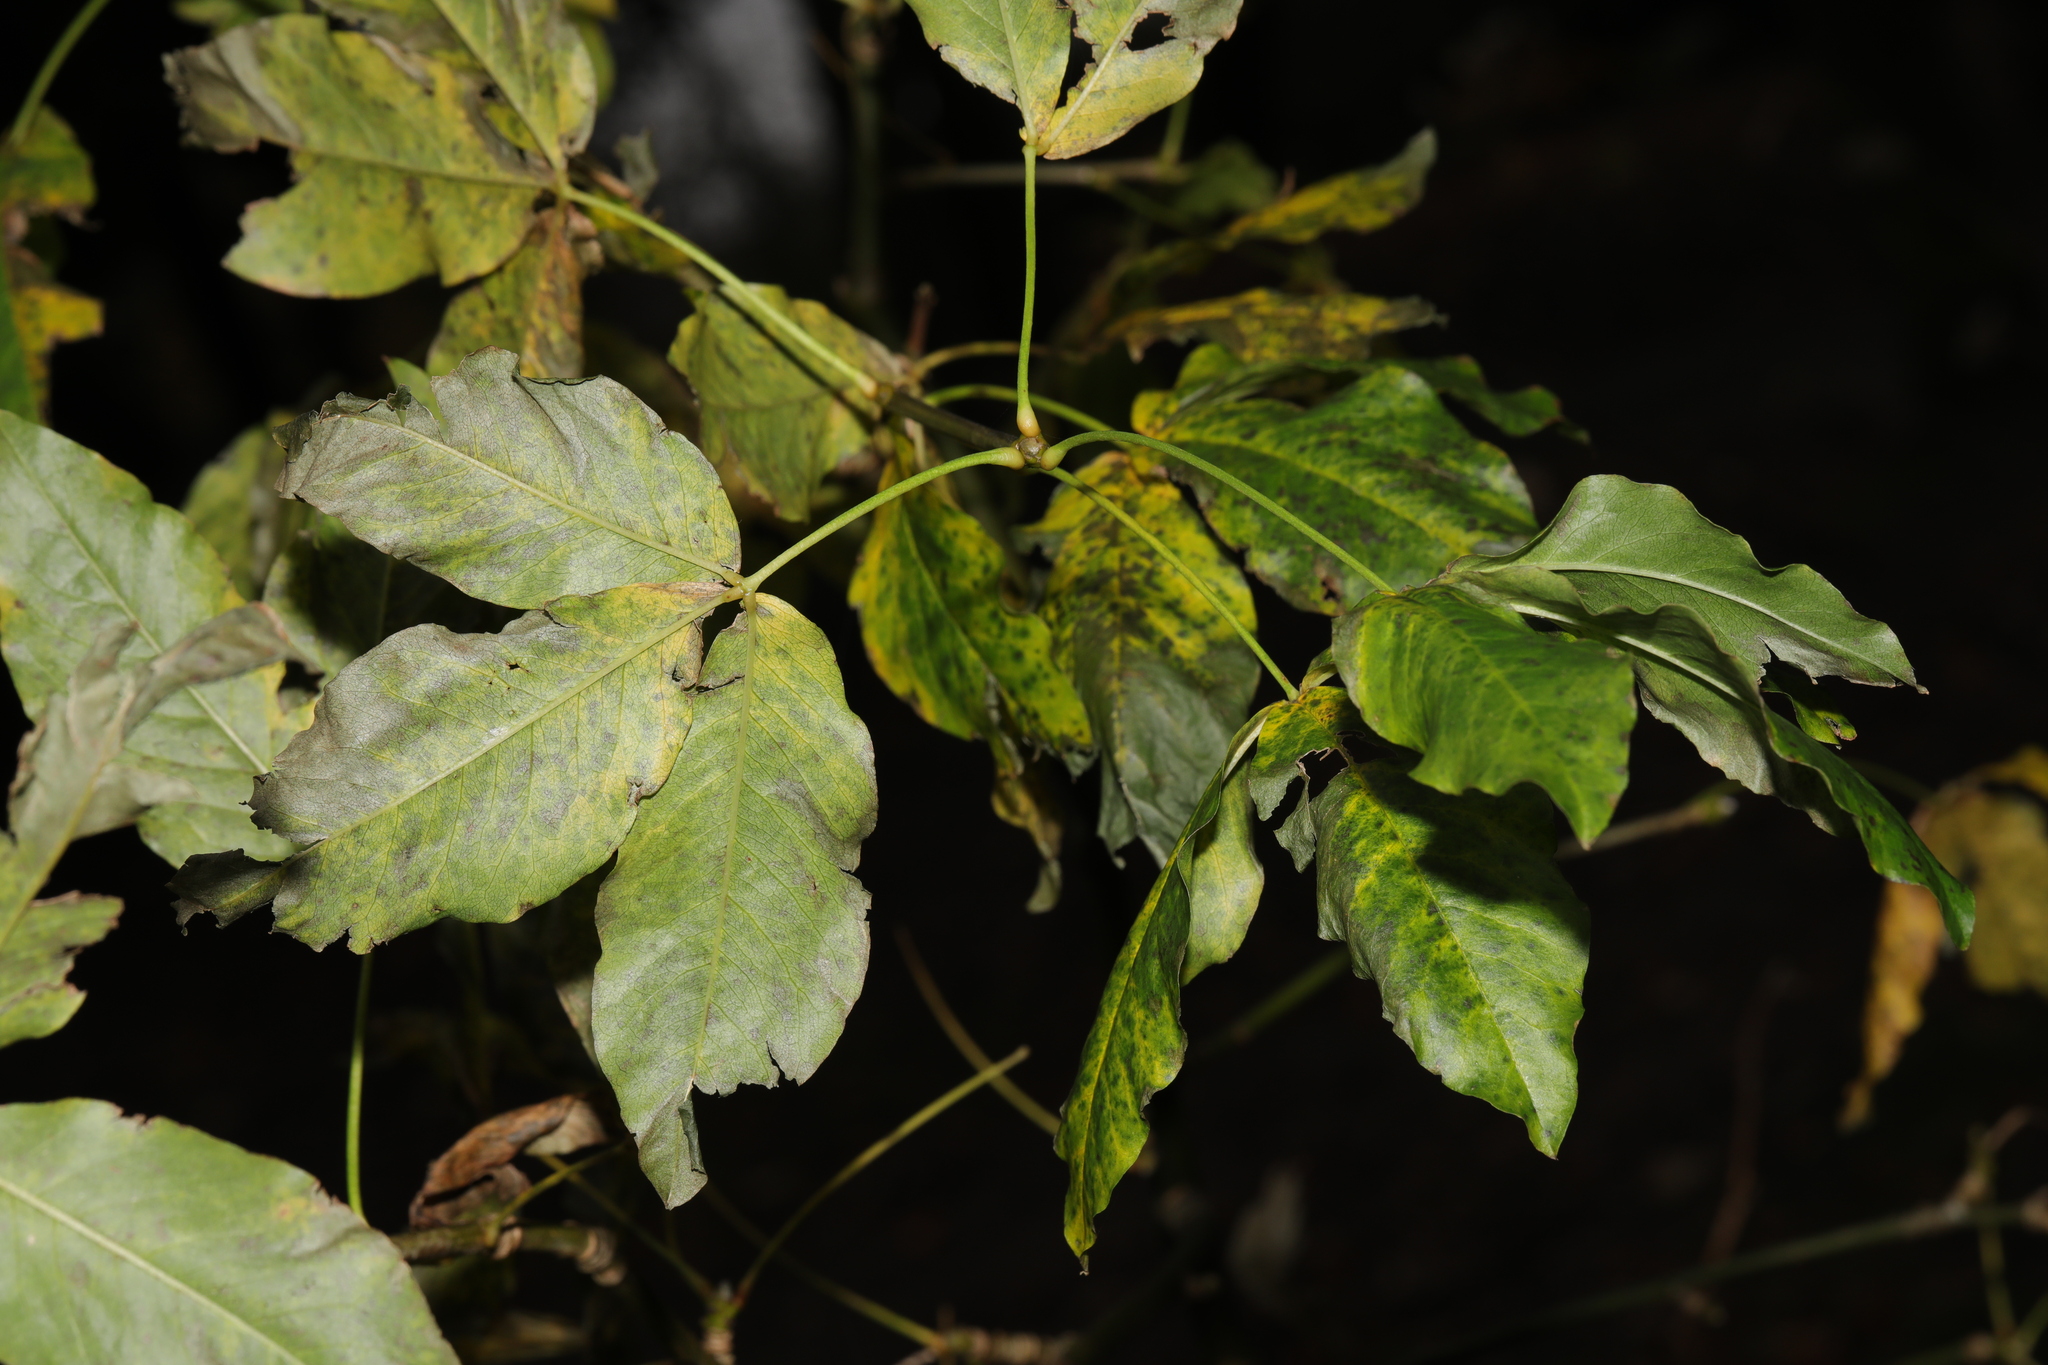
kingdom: Plantae
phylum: Tracheophyta
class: Magnoliopsida
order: Fabales
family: Fabaceae
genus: Laburnum
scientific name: Laburnum anagyroides
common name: Laburnum
